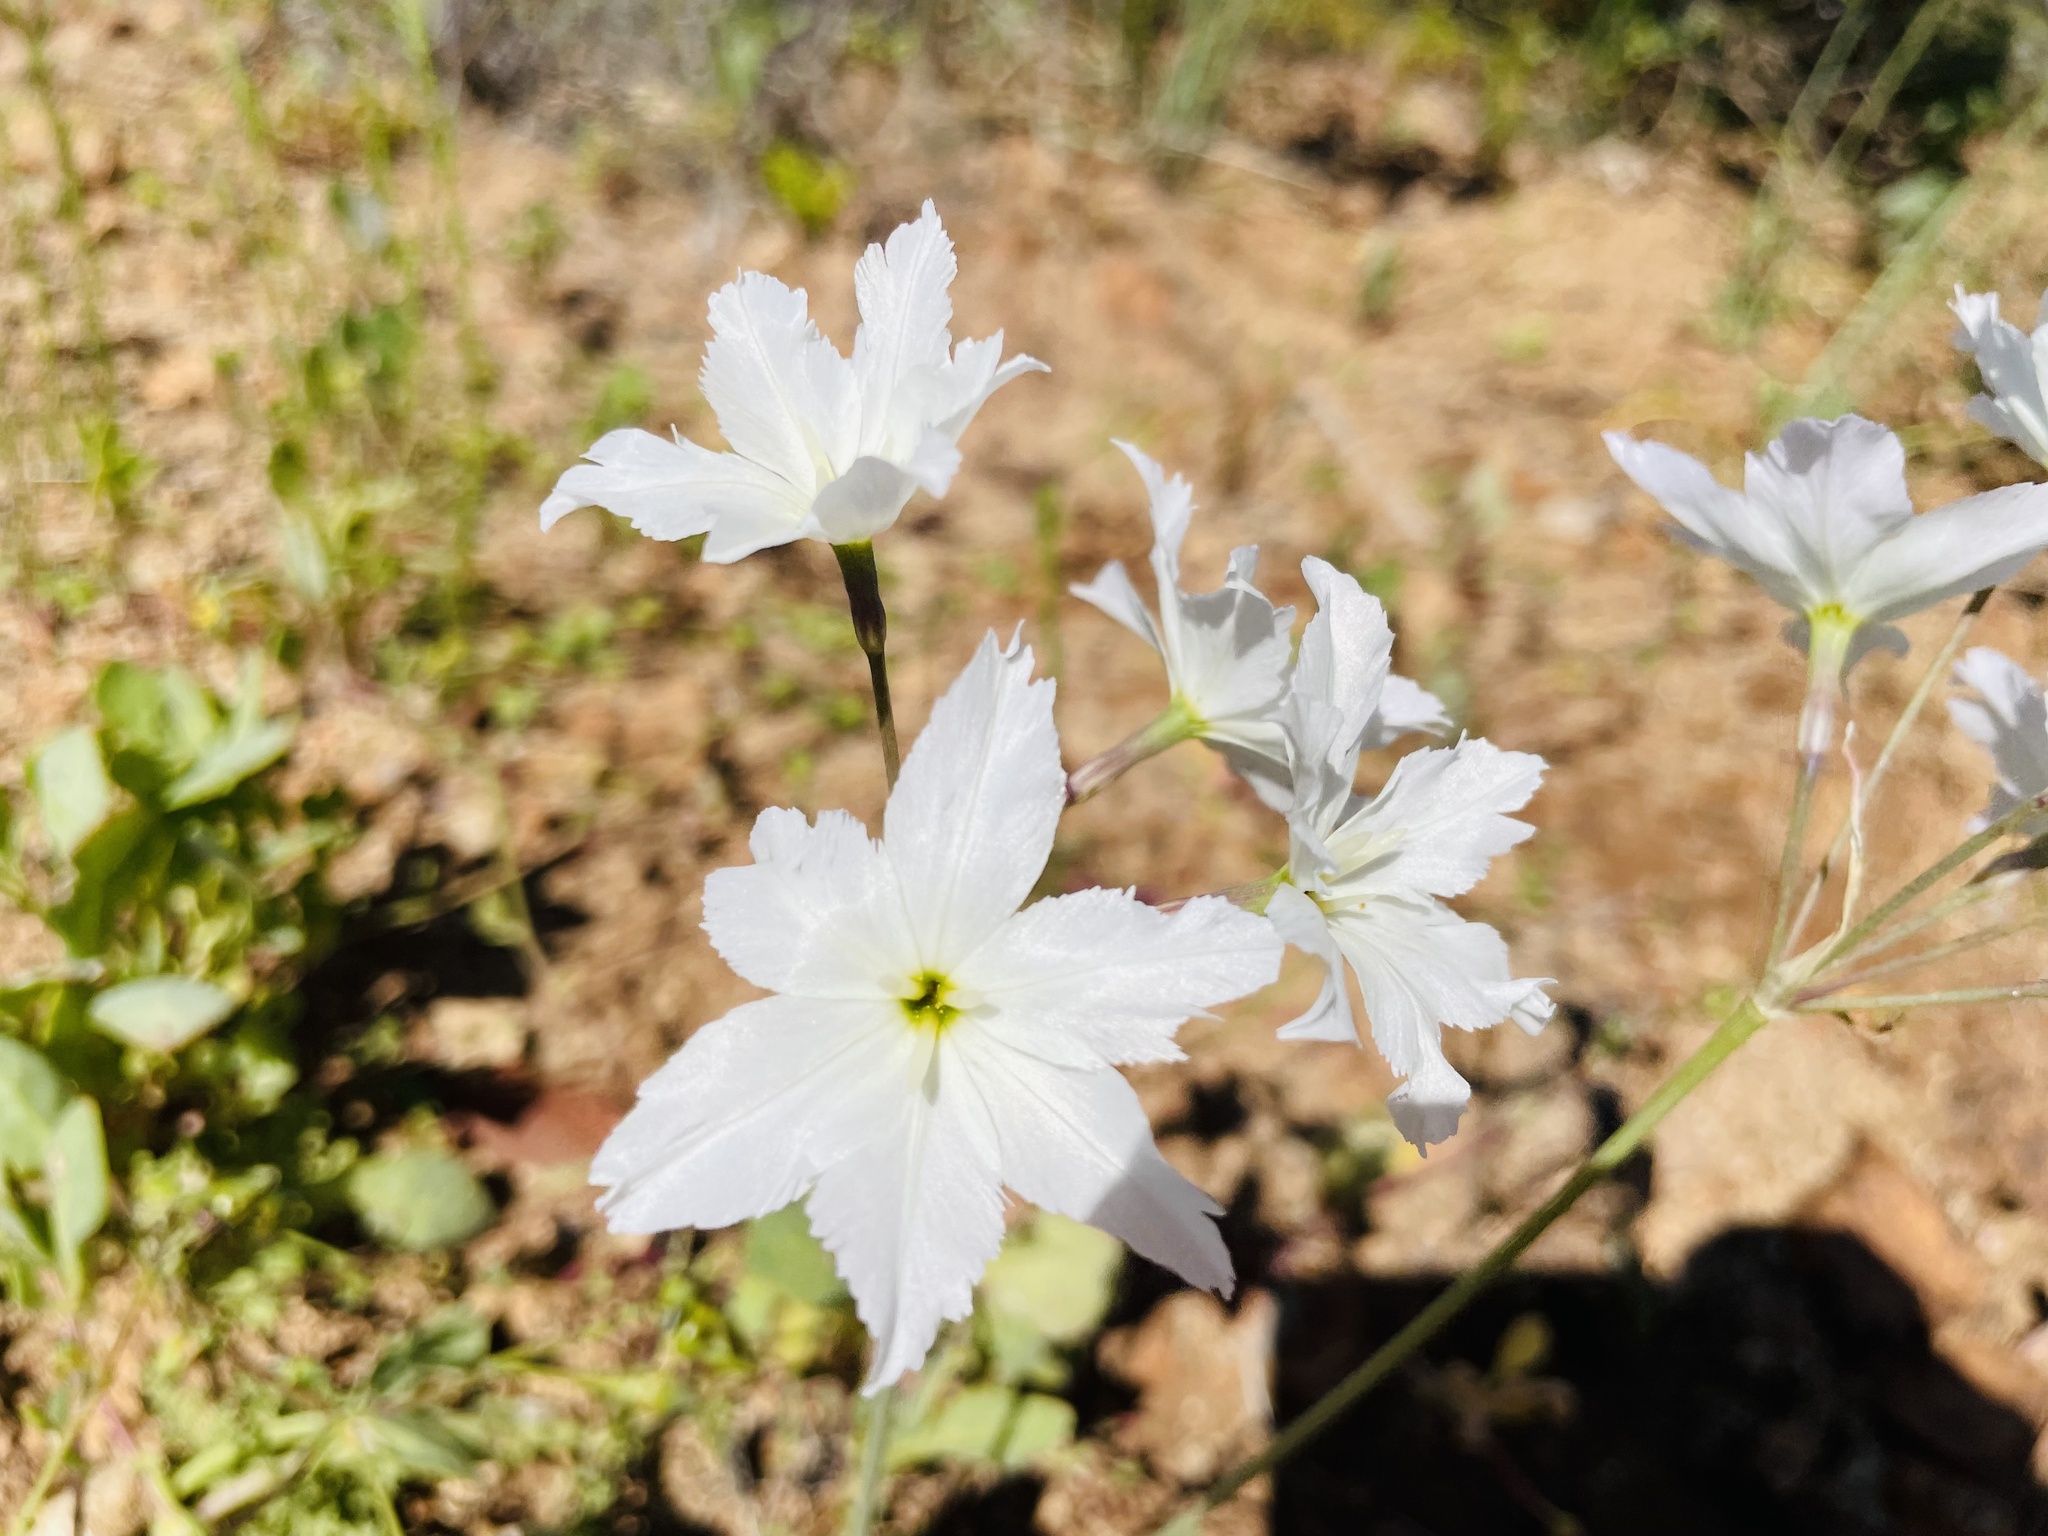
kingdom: Plantae
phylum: Tracheophyta
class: Liliopsida
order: Asparagales
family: Amaryllidaceae
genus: Leucocoryne
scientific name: Leucocoryne ixioides
